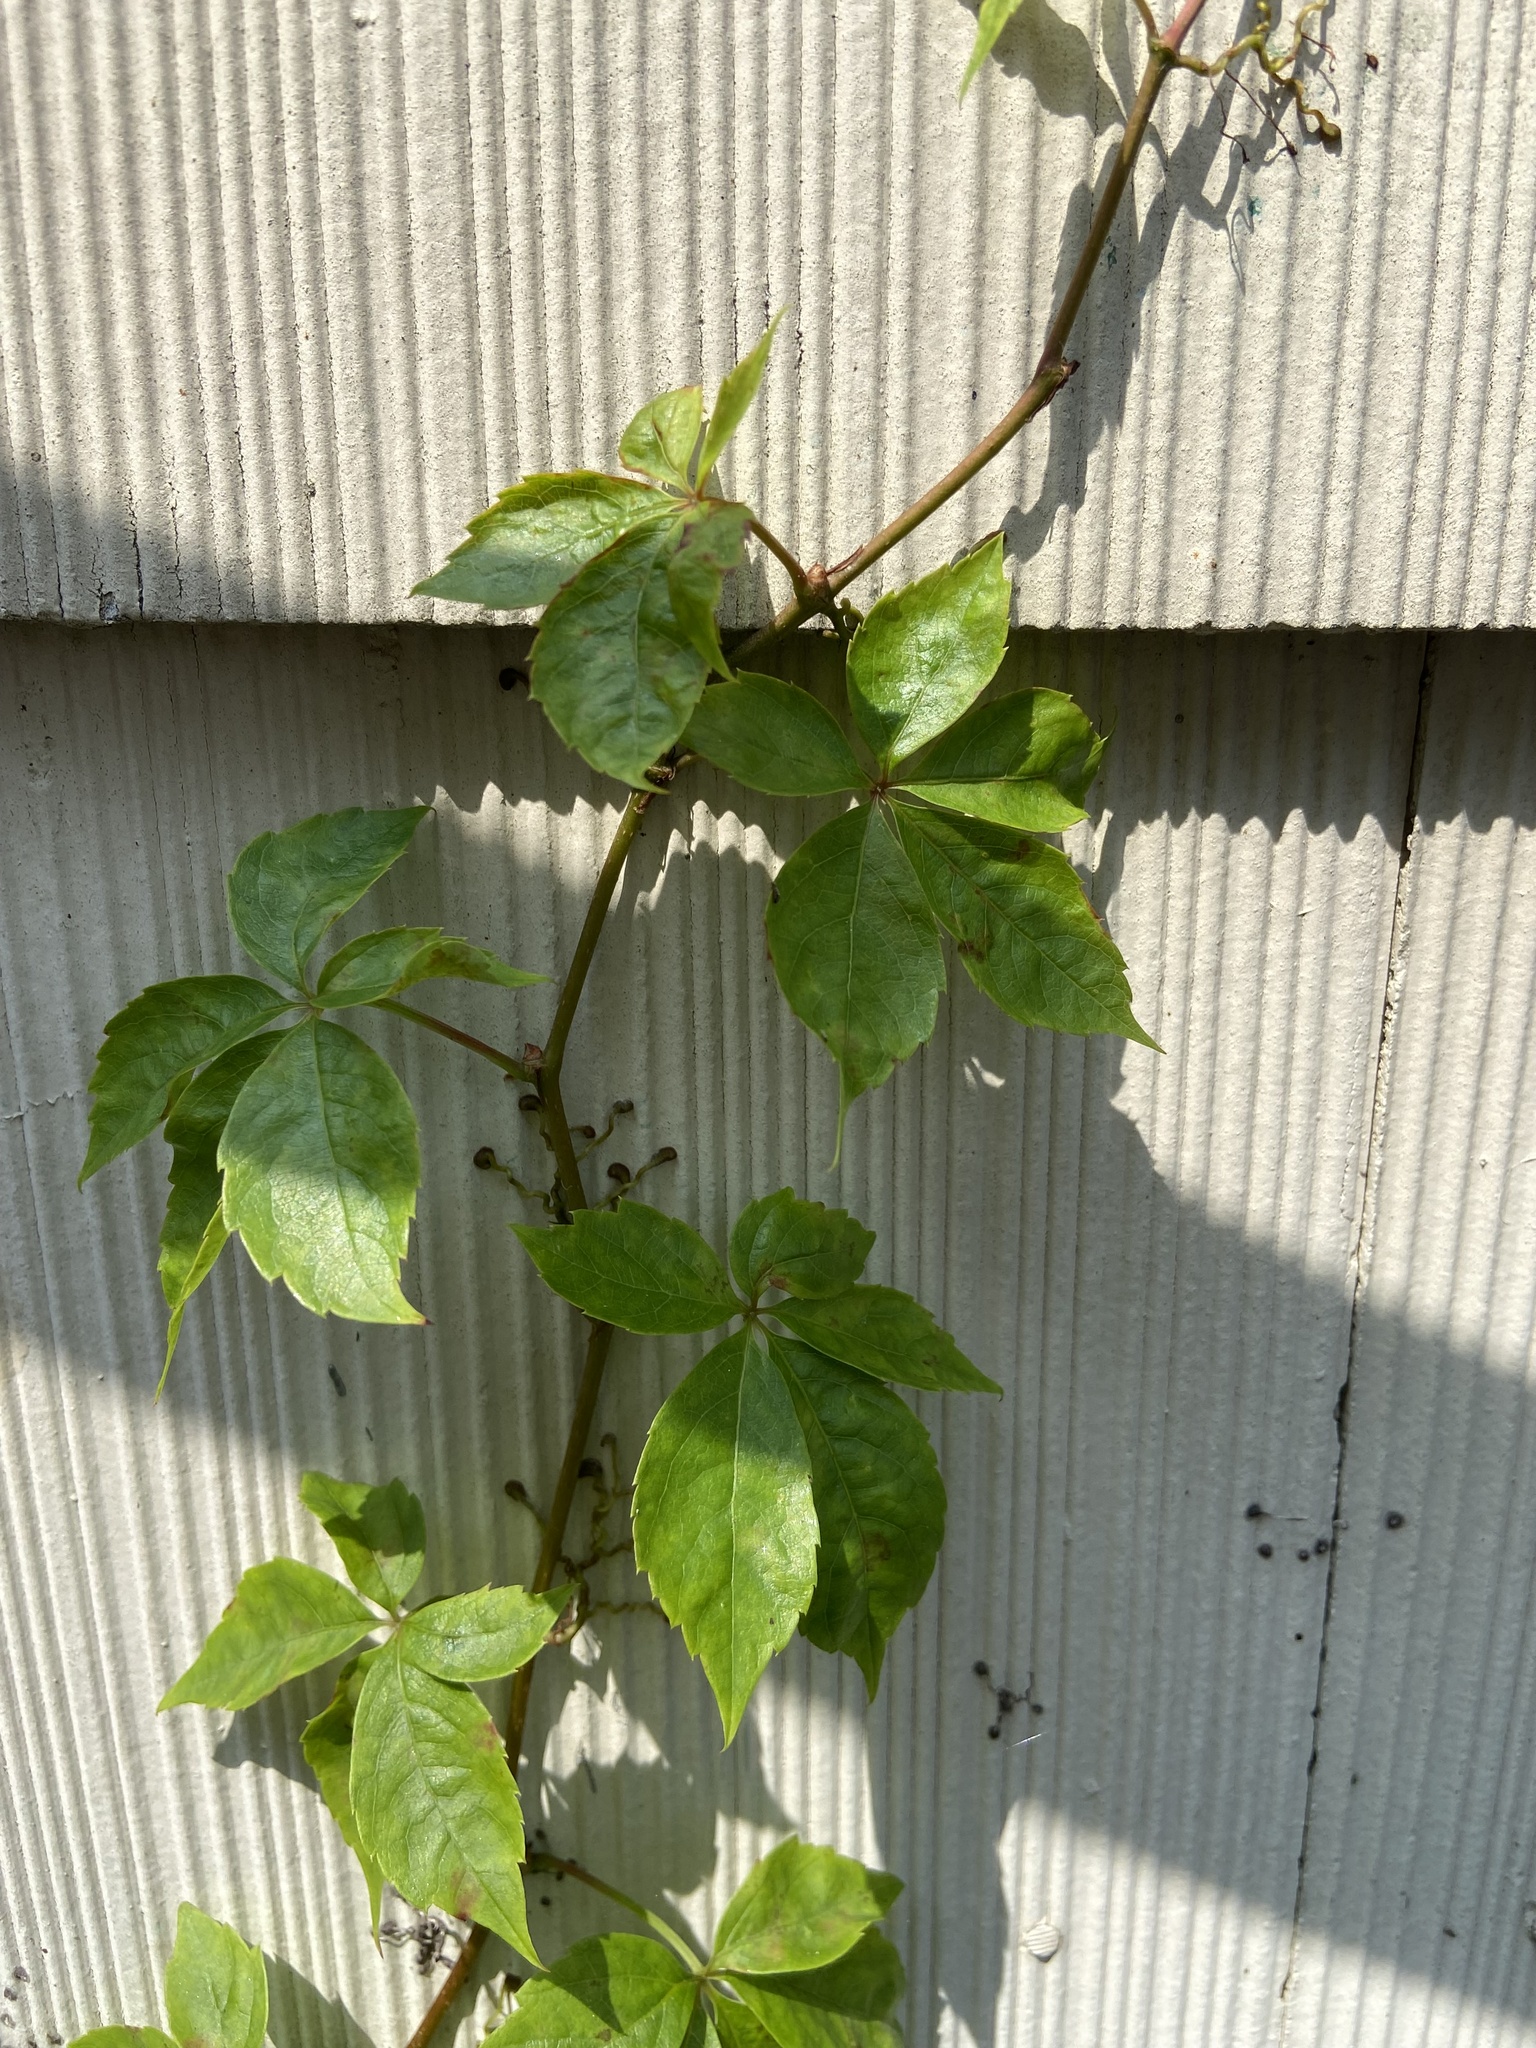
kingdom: Plantae
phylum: Tracheophyta
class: Magnoliopsida
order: Vitales
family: Vitaceae
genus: Parthenocissus
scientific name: Parthenocissus quinquefolia
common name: Virginia-creeper
